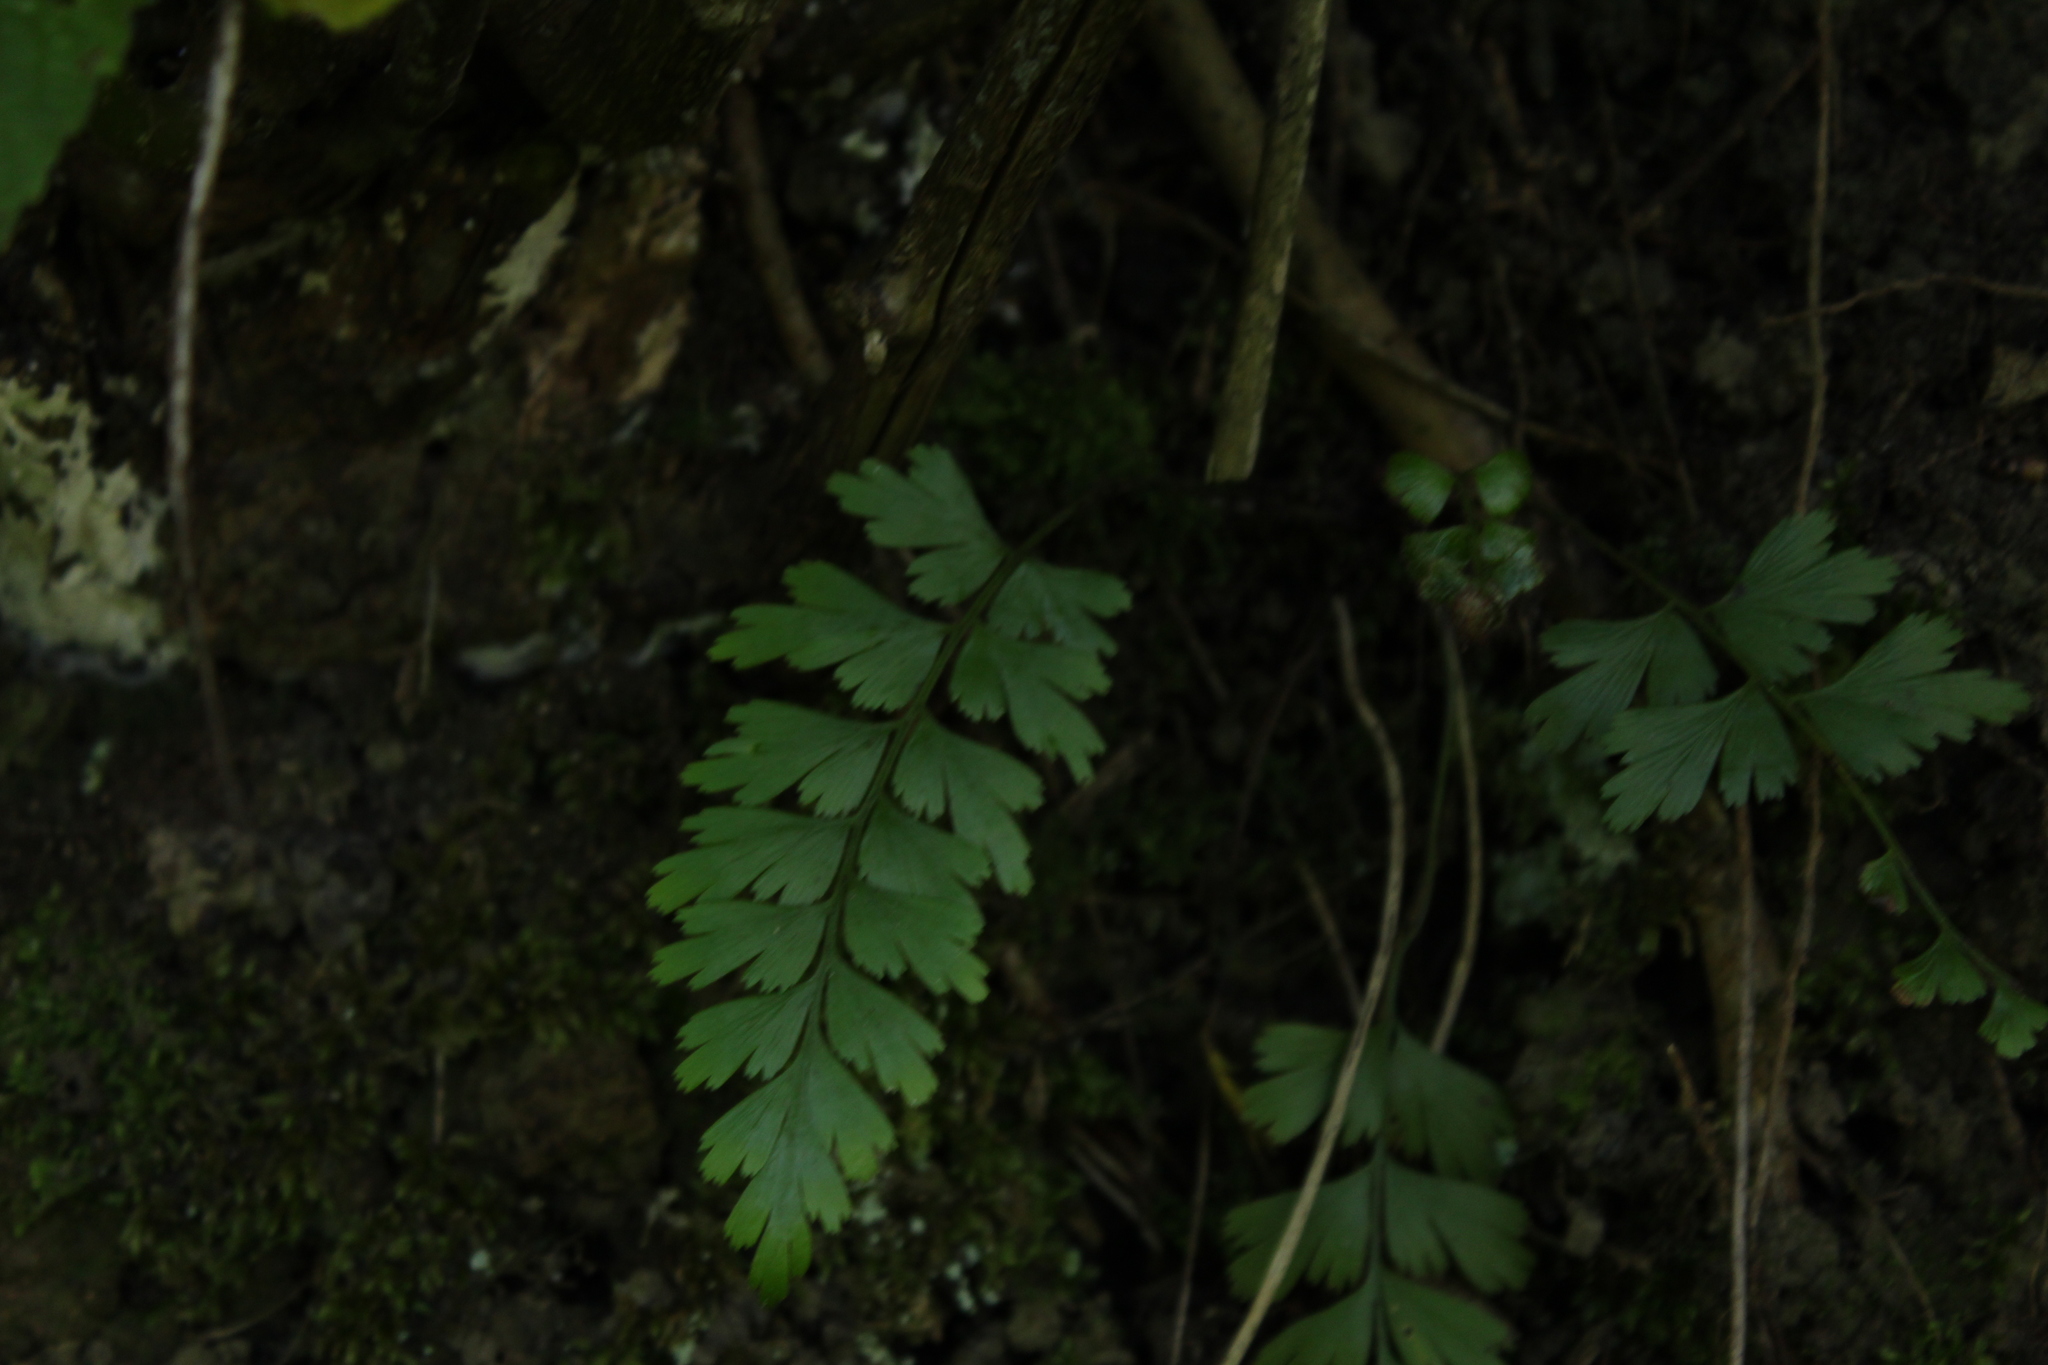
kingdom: Plantae
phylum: Tracheophyta
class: Polypodiopsida
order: Polypodiales
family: Aspleniaceae
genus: Asplenium
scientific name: Asplenium praemorsum
